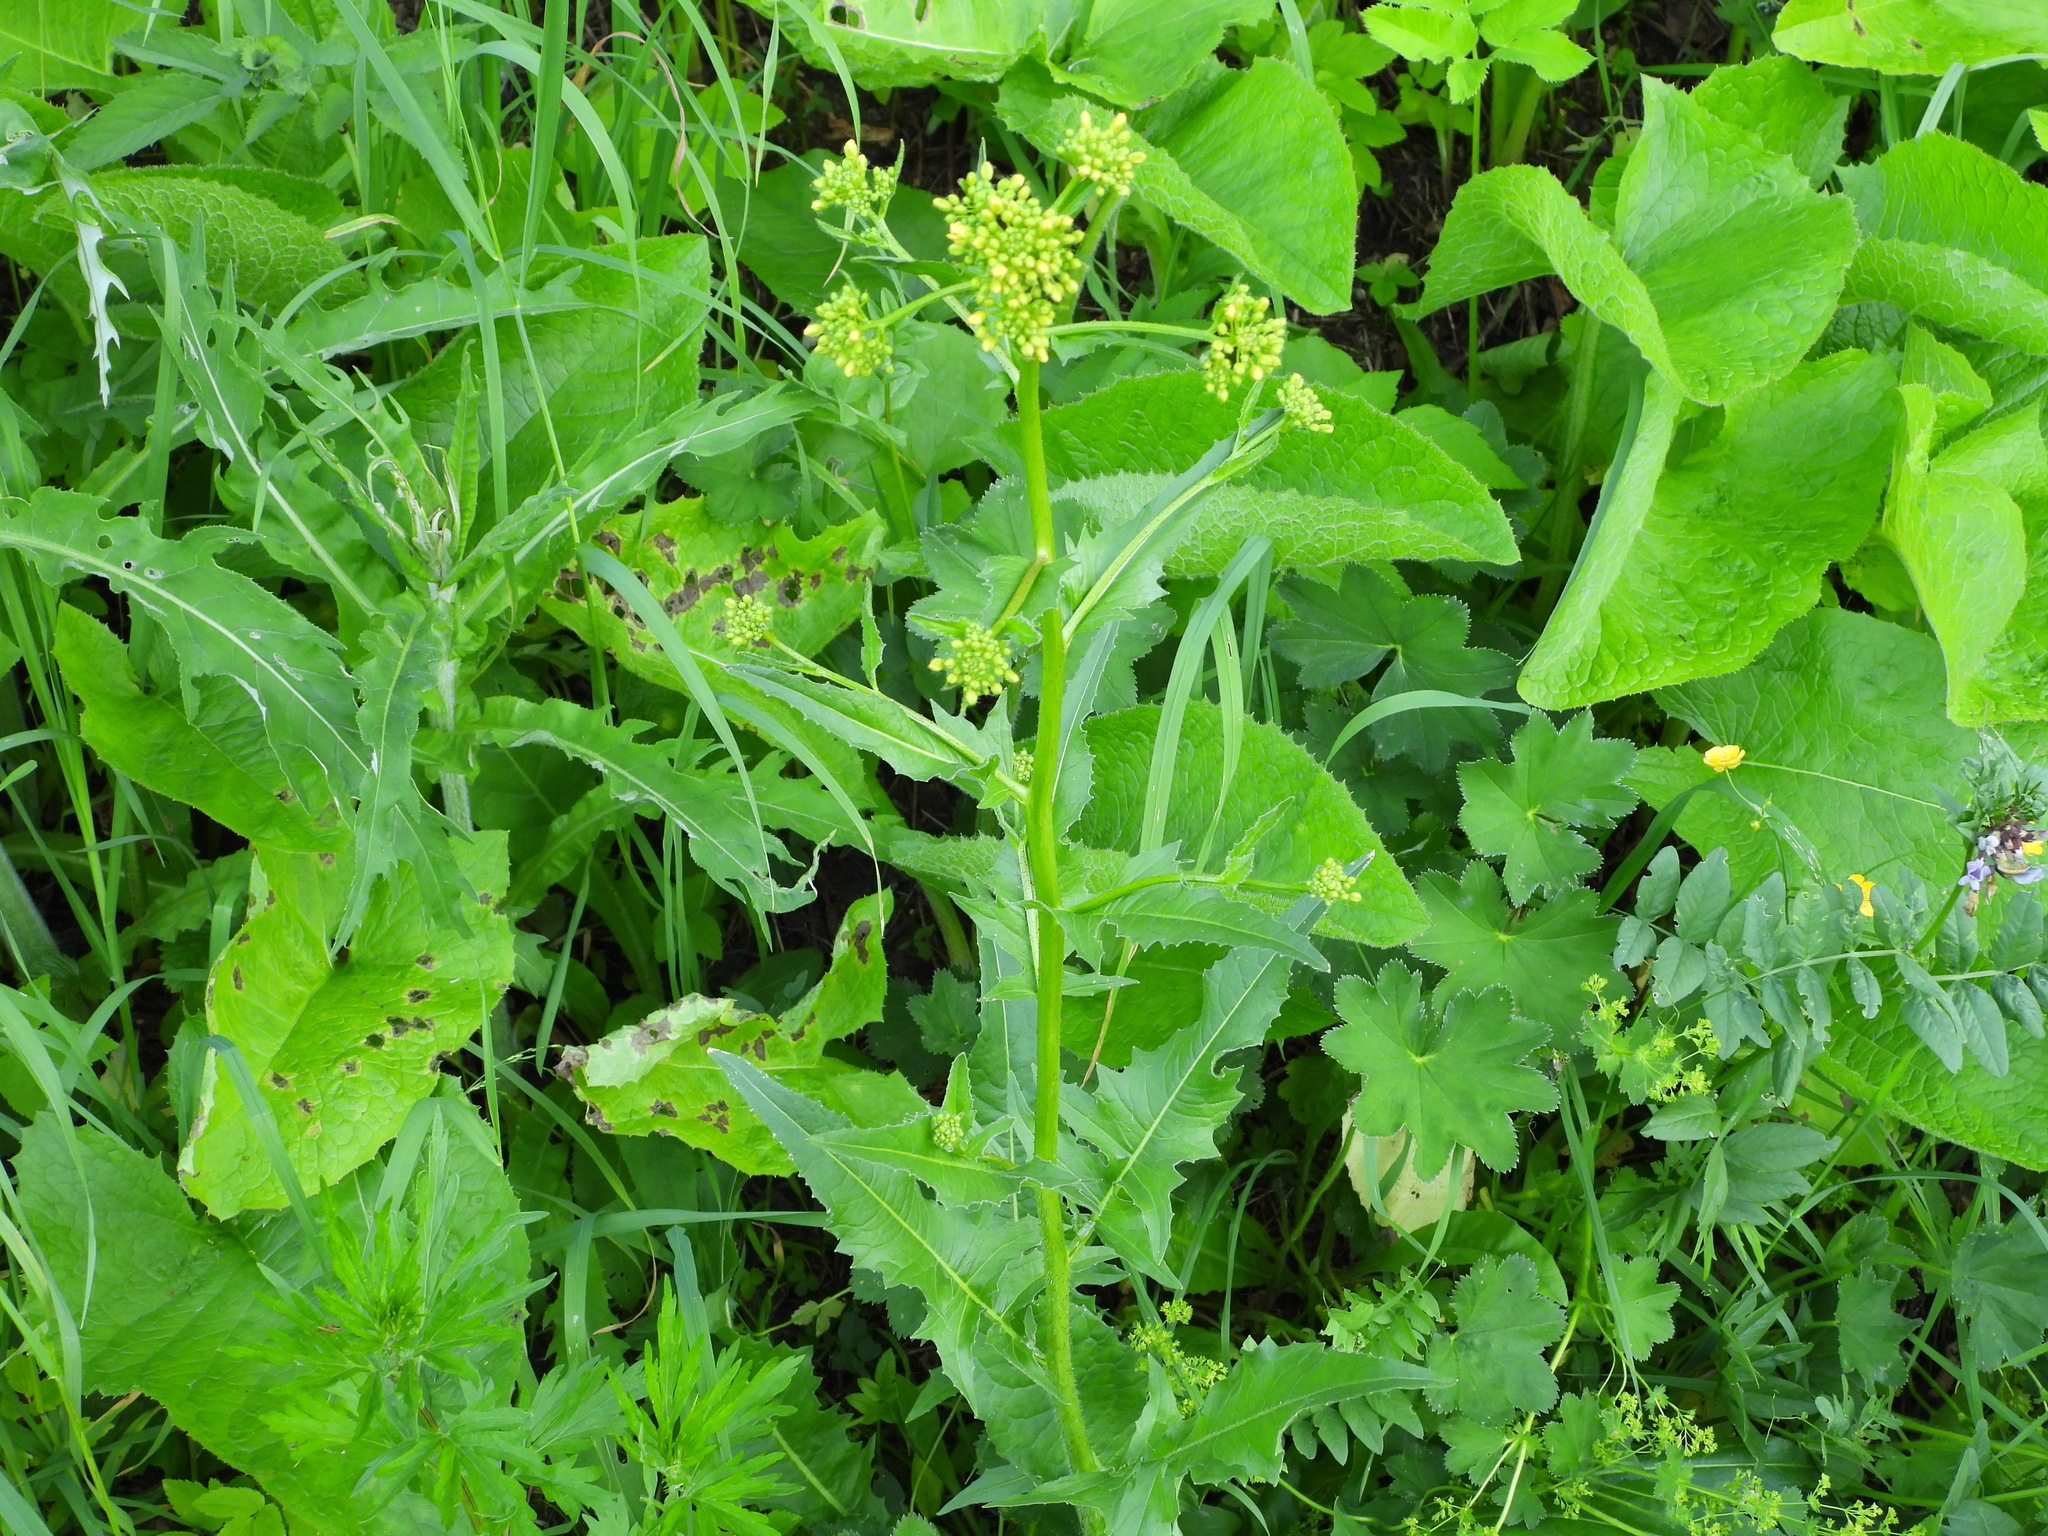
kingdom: Plantae
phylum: Tracheophyta
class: Magnoliopsida
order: Brassicales
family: Brassicaceae
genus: Bunias
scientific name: Bunias orientalis
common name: Warty-cabbage
